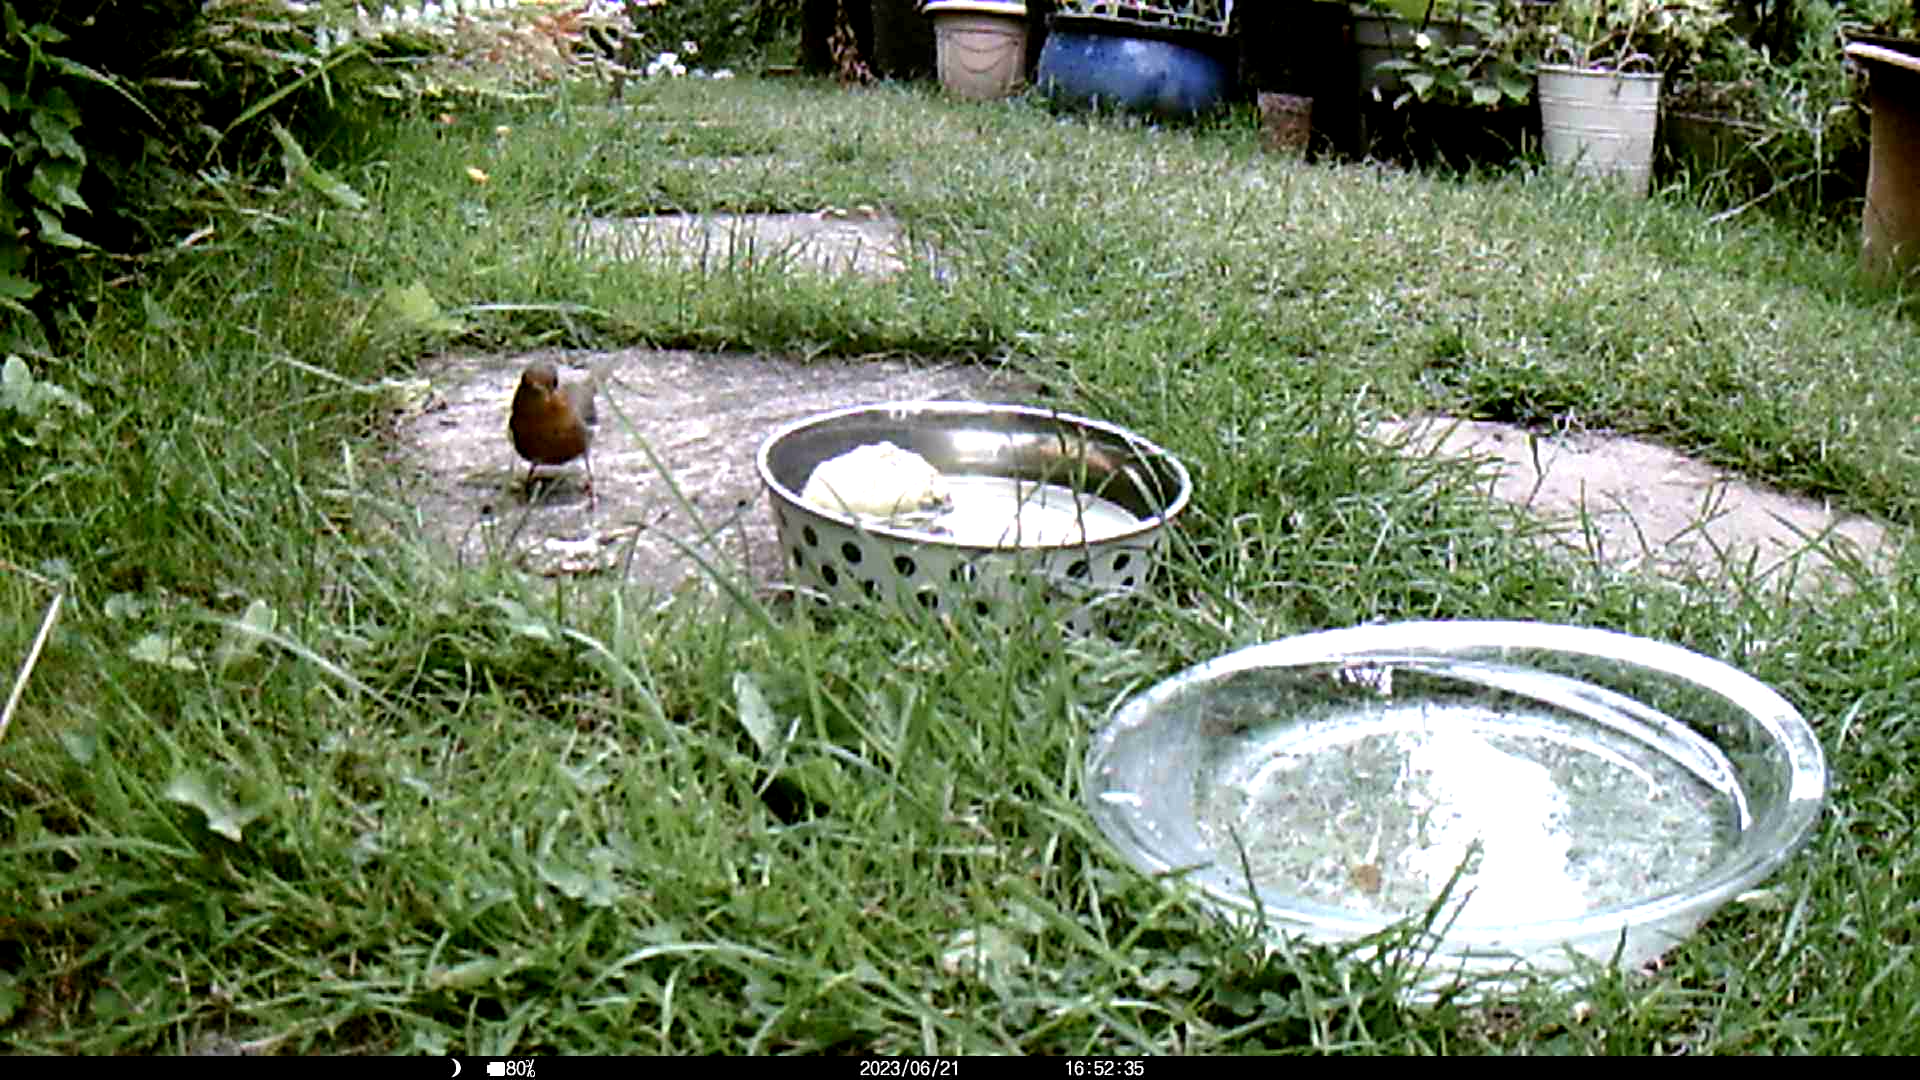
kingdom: Animalia
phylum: Chordata
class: Aves
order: Passeriformes
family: Muscicapidae
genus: Erithacus
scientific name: Erithacus rubecula
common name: European robin
